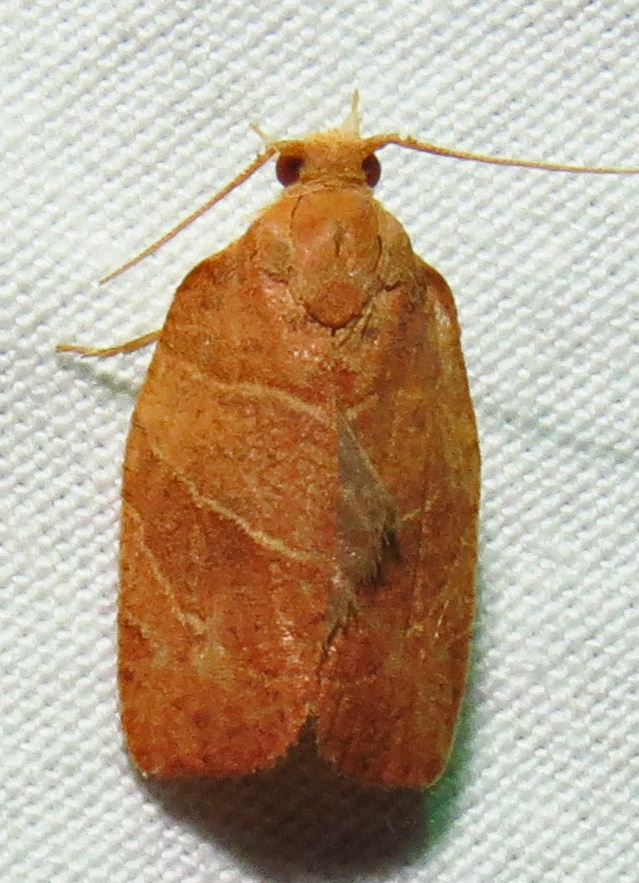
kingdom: Animalia
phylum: Arthropoda
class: Insecta
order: Lepidoptera
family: Tortricidae
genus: Pandemis
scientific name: Pandemis limitata
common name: Three-lined leafroller moth
